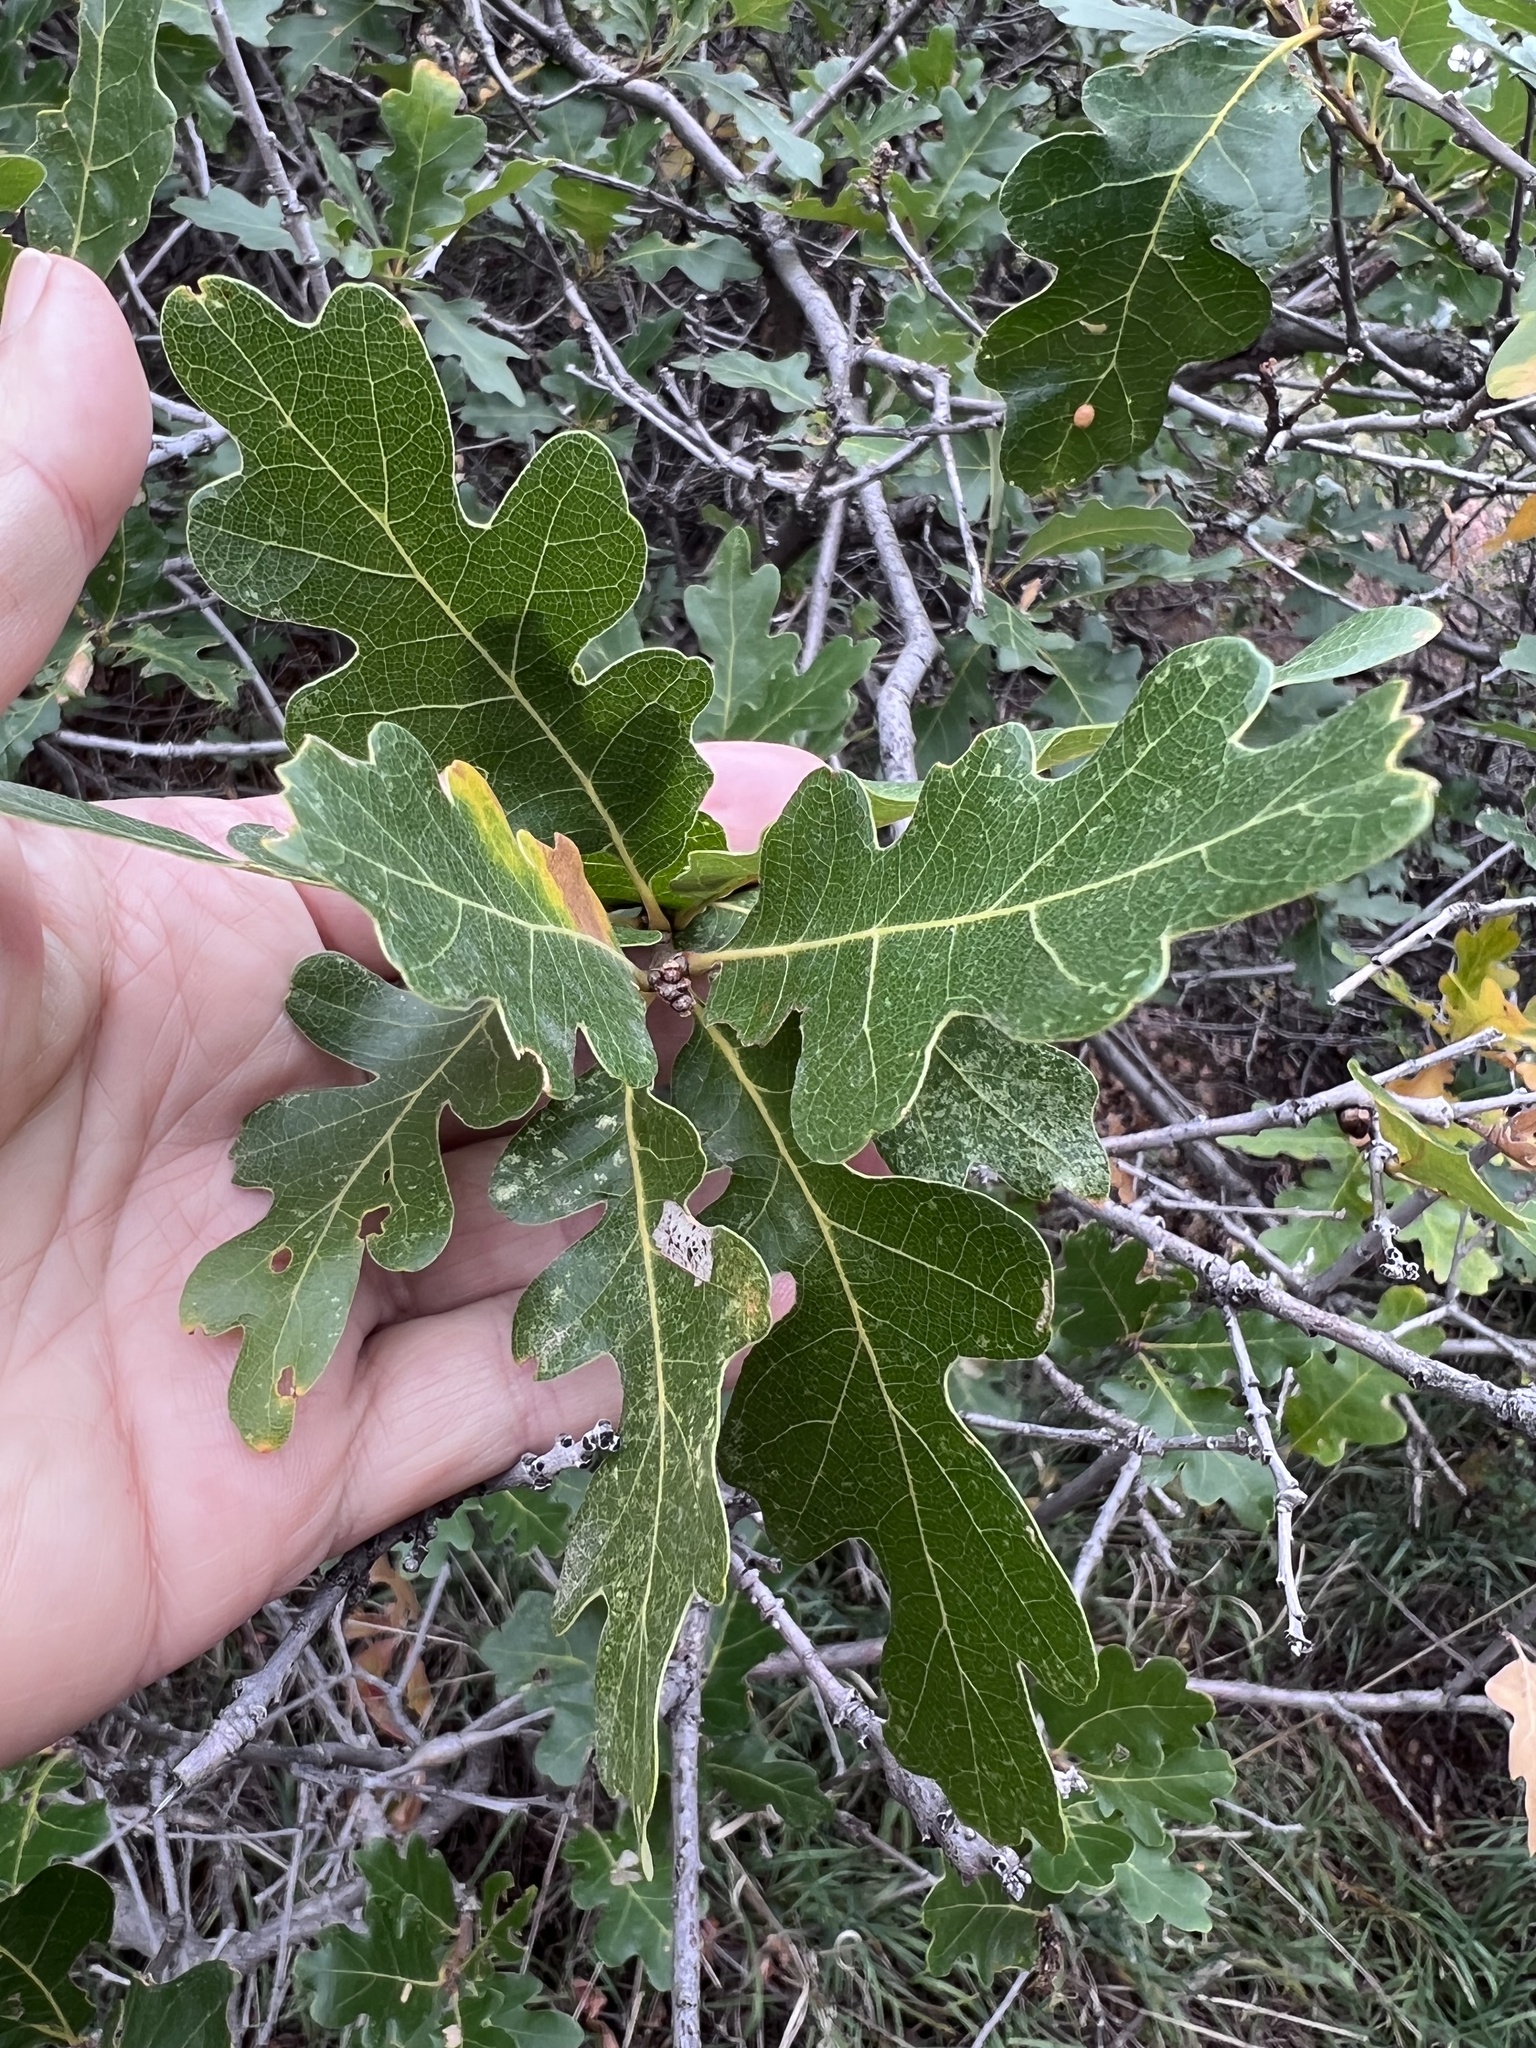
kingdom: Plantae
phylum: Tracheophyta
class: Magnoliopsida
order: Fagales
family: Fagaceae
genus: Quercus
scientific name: Quercus gambelii
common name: Gambel oak
